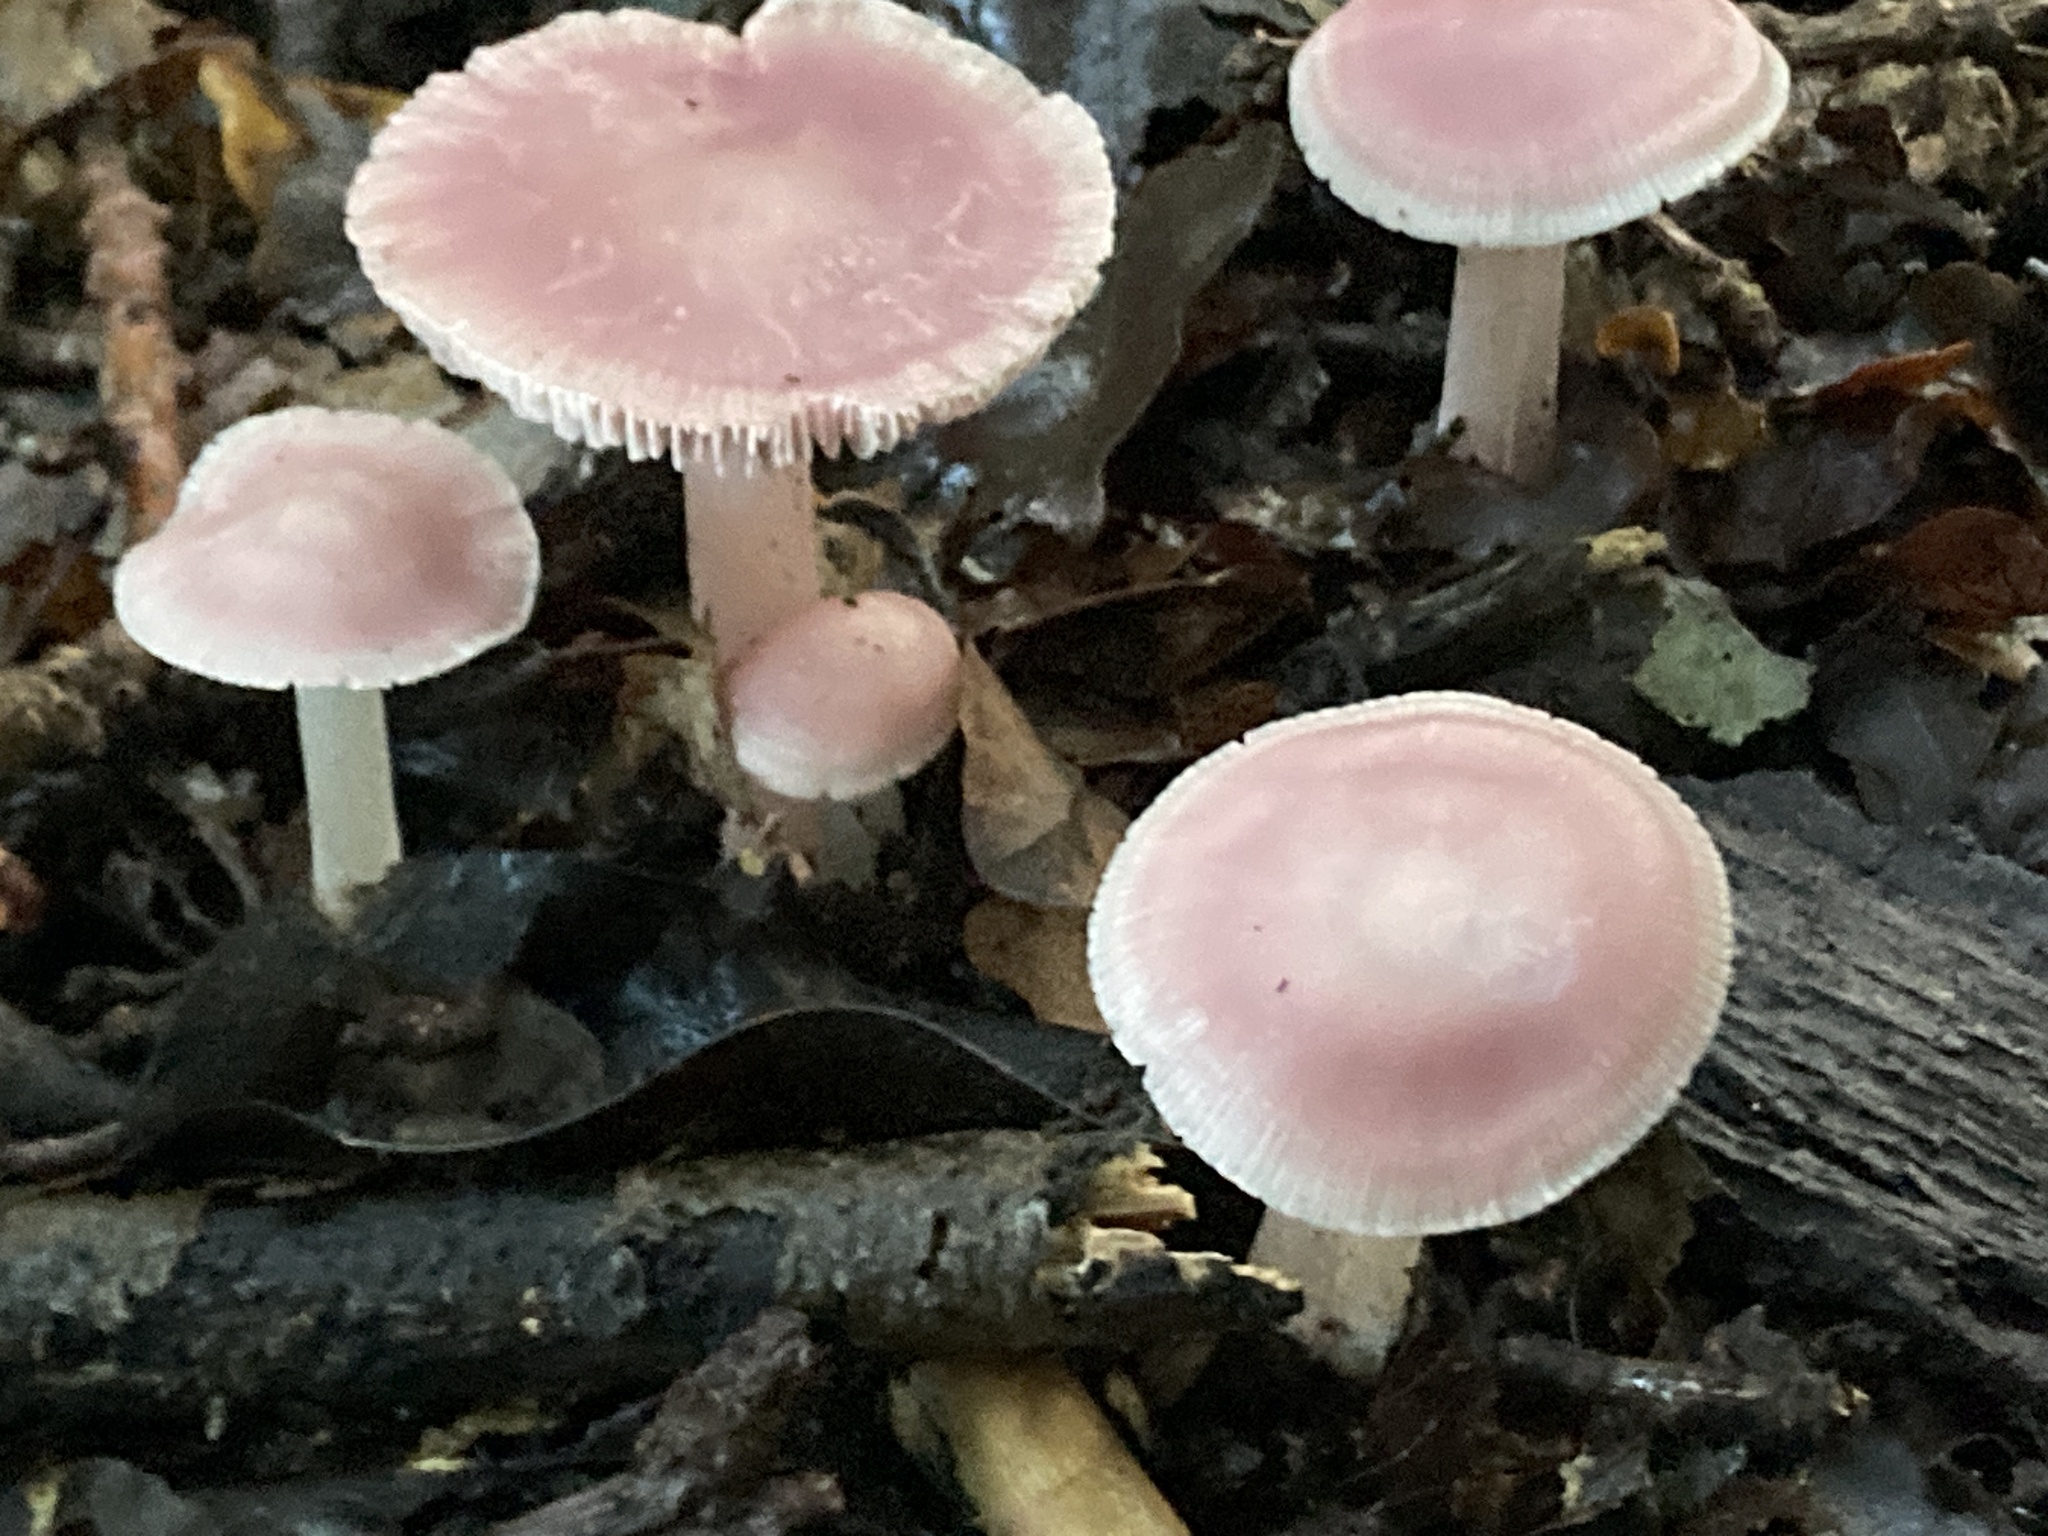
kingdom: Fungi
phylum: Basidiomycota
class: Agaricomycetes
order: Agaricales
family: Mycenaceae
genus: Mycena
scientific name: Mycena rosea
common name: Rosy bonnet
